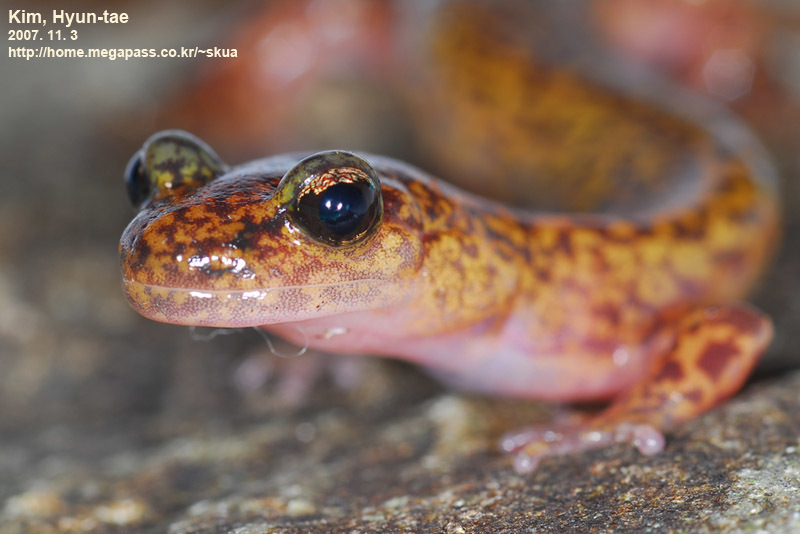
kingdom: Animalia
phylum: Chordata
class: Amphibia
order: Caudata
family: Hynobiidae
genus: Onychodactylus
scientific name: Onychodactylus koreanus
